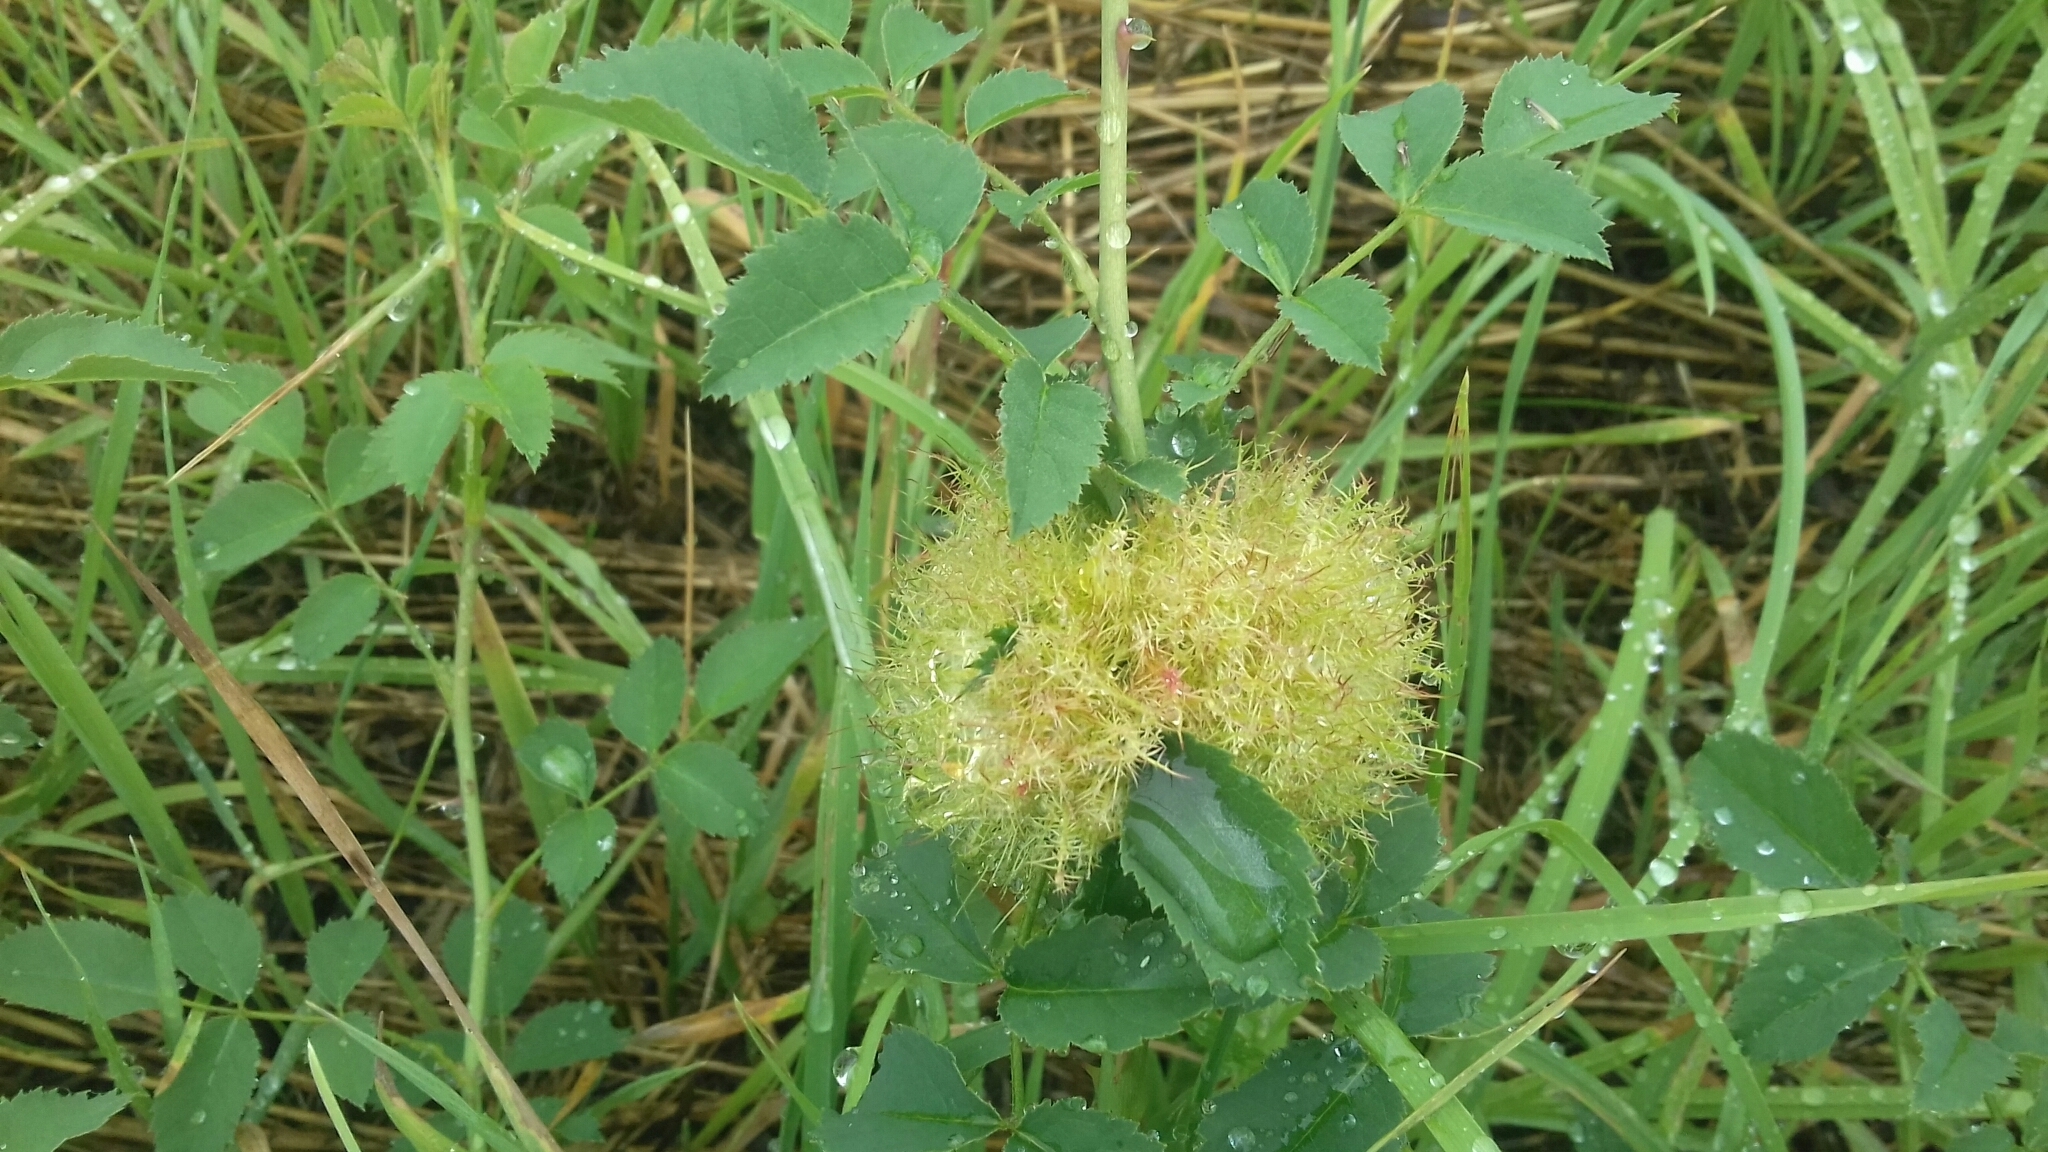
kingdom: Animalia
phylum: Arthropoda
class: Insecta
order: Hymenoptera
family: Cynipidae
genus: Diplolepis
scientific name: Diplolepis rosae
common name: Bedeguar gall
